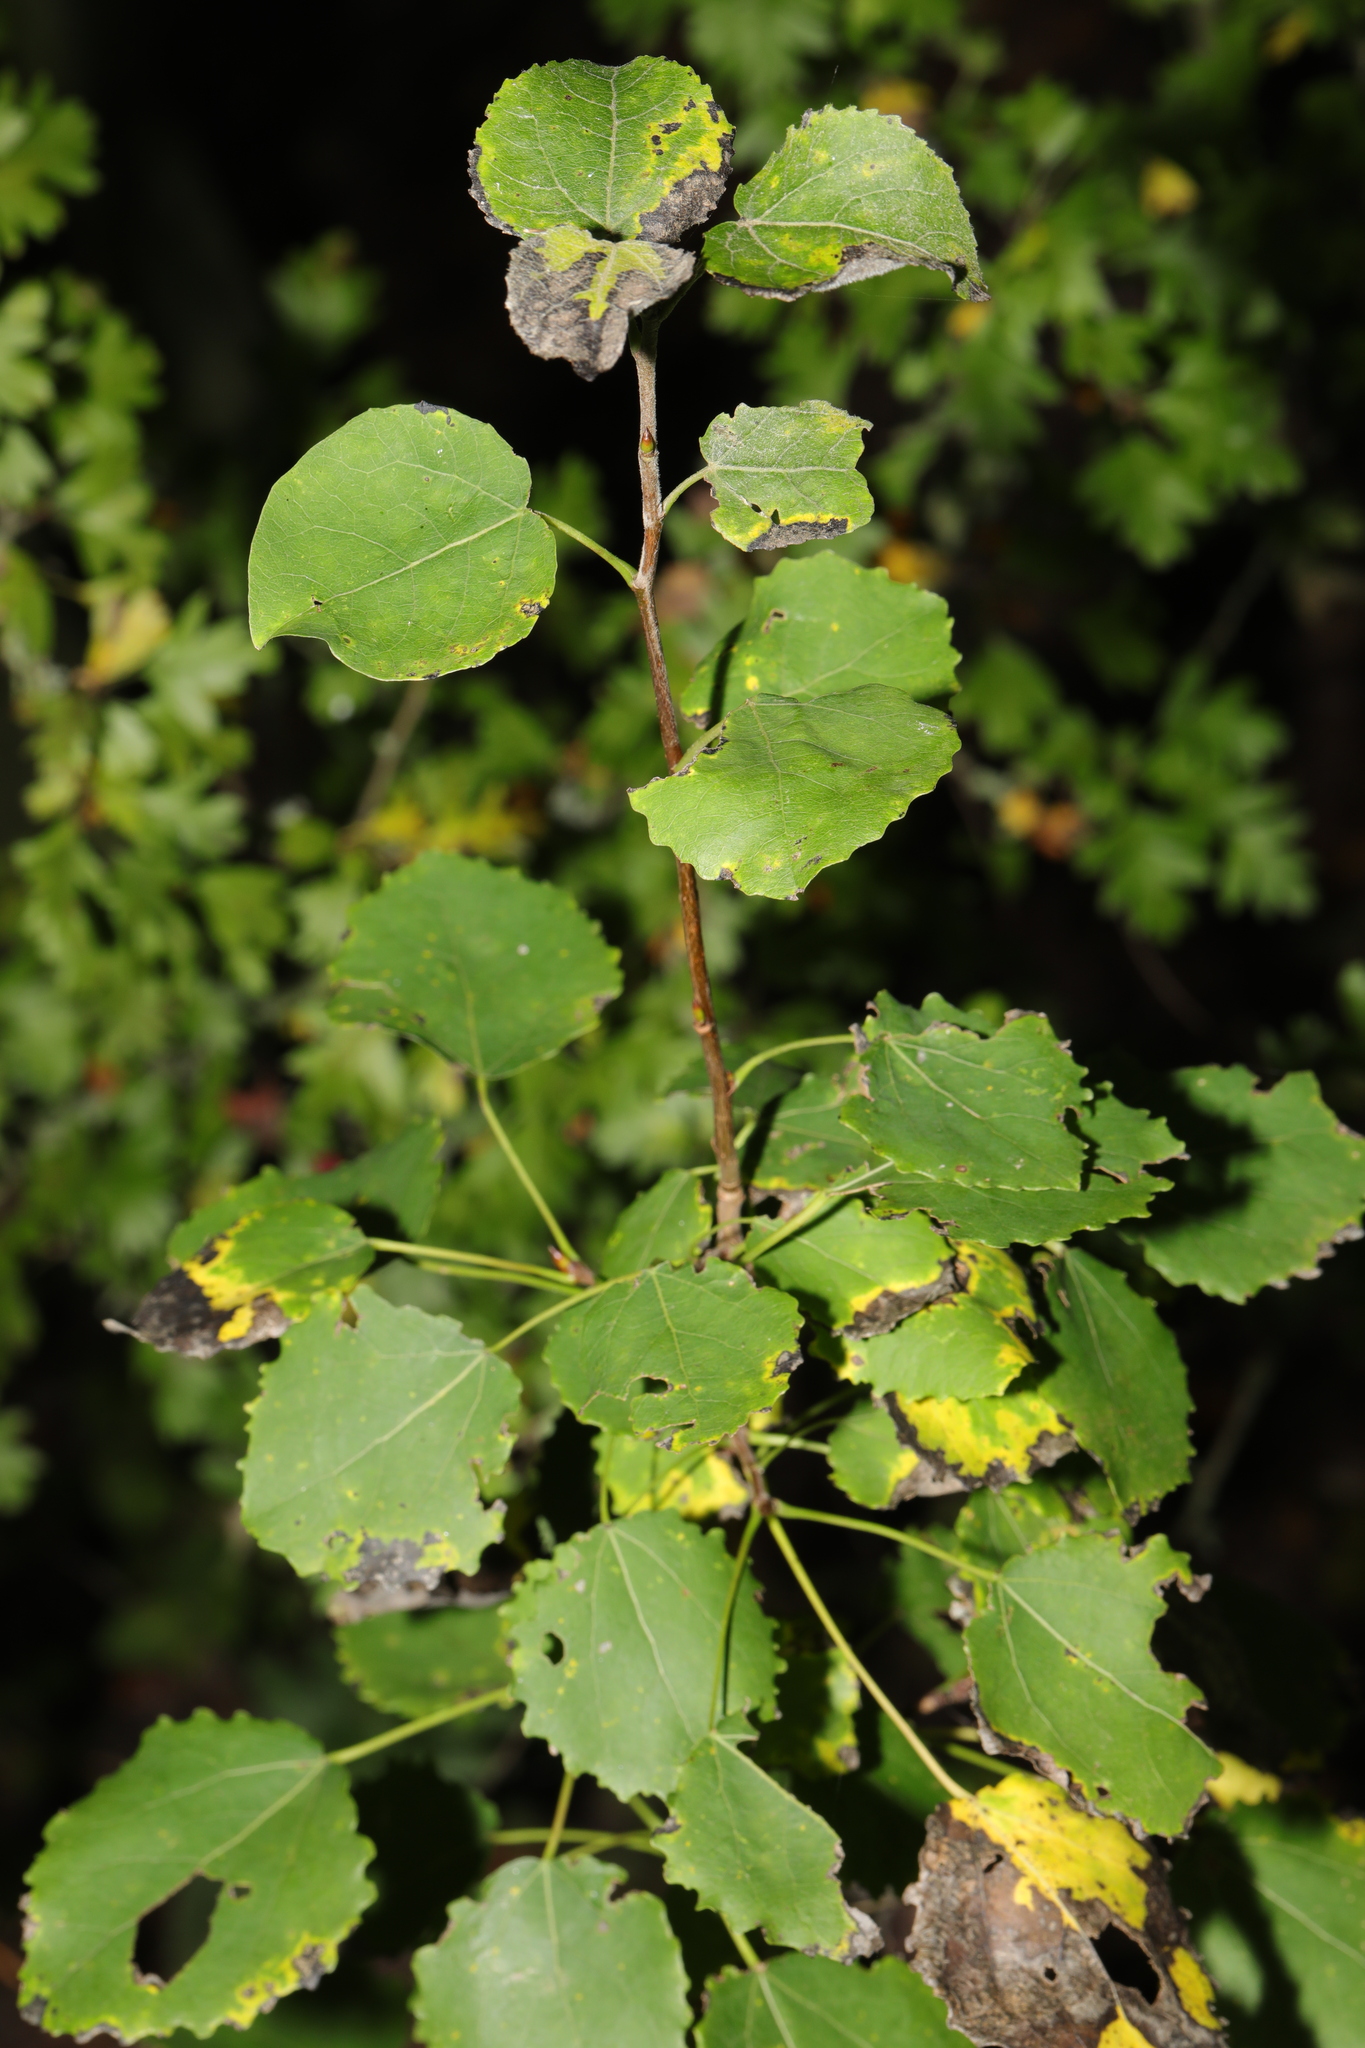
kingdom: Plantae
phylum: Tracheophyta
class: Magnoliopsida
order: Malpighiales
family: Salicaceae
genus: Populus
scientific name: Populus tremula
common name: European aspen
